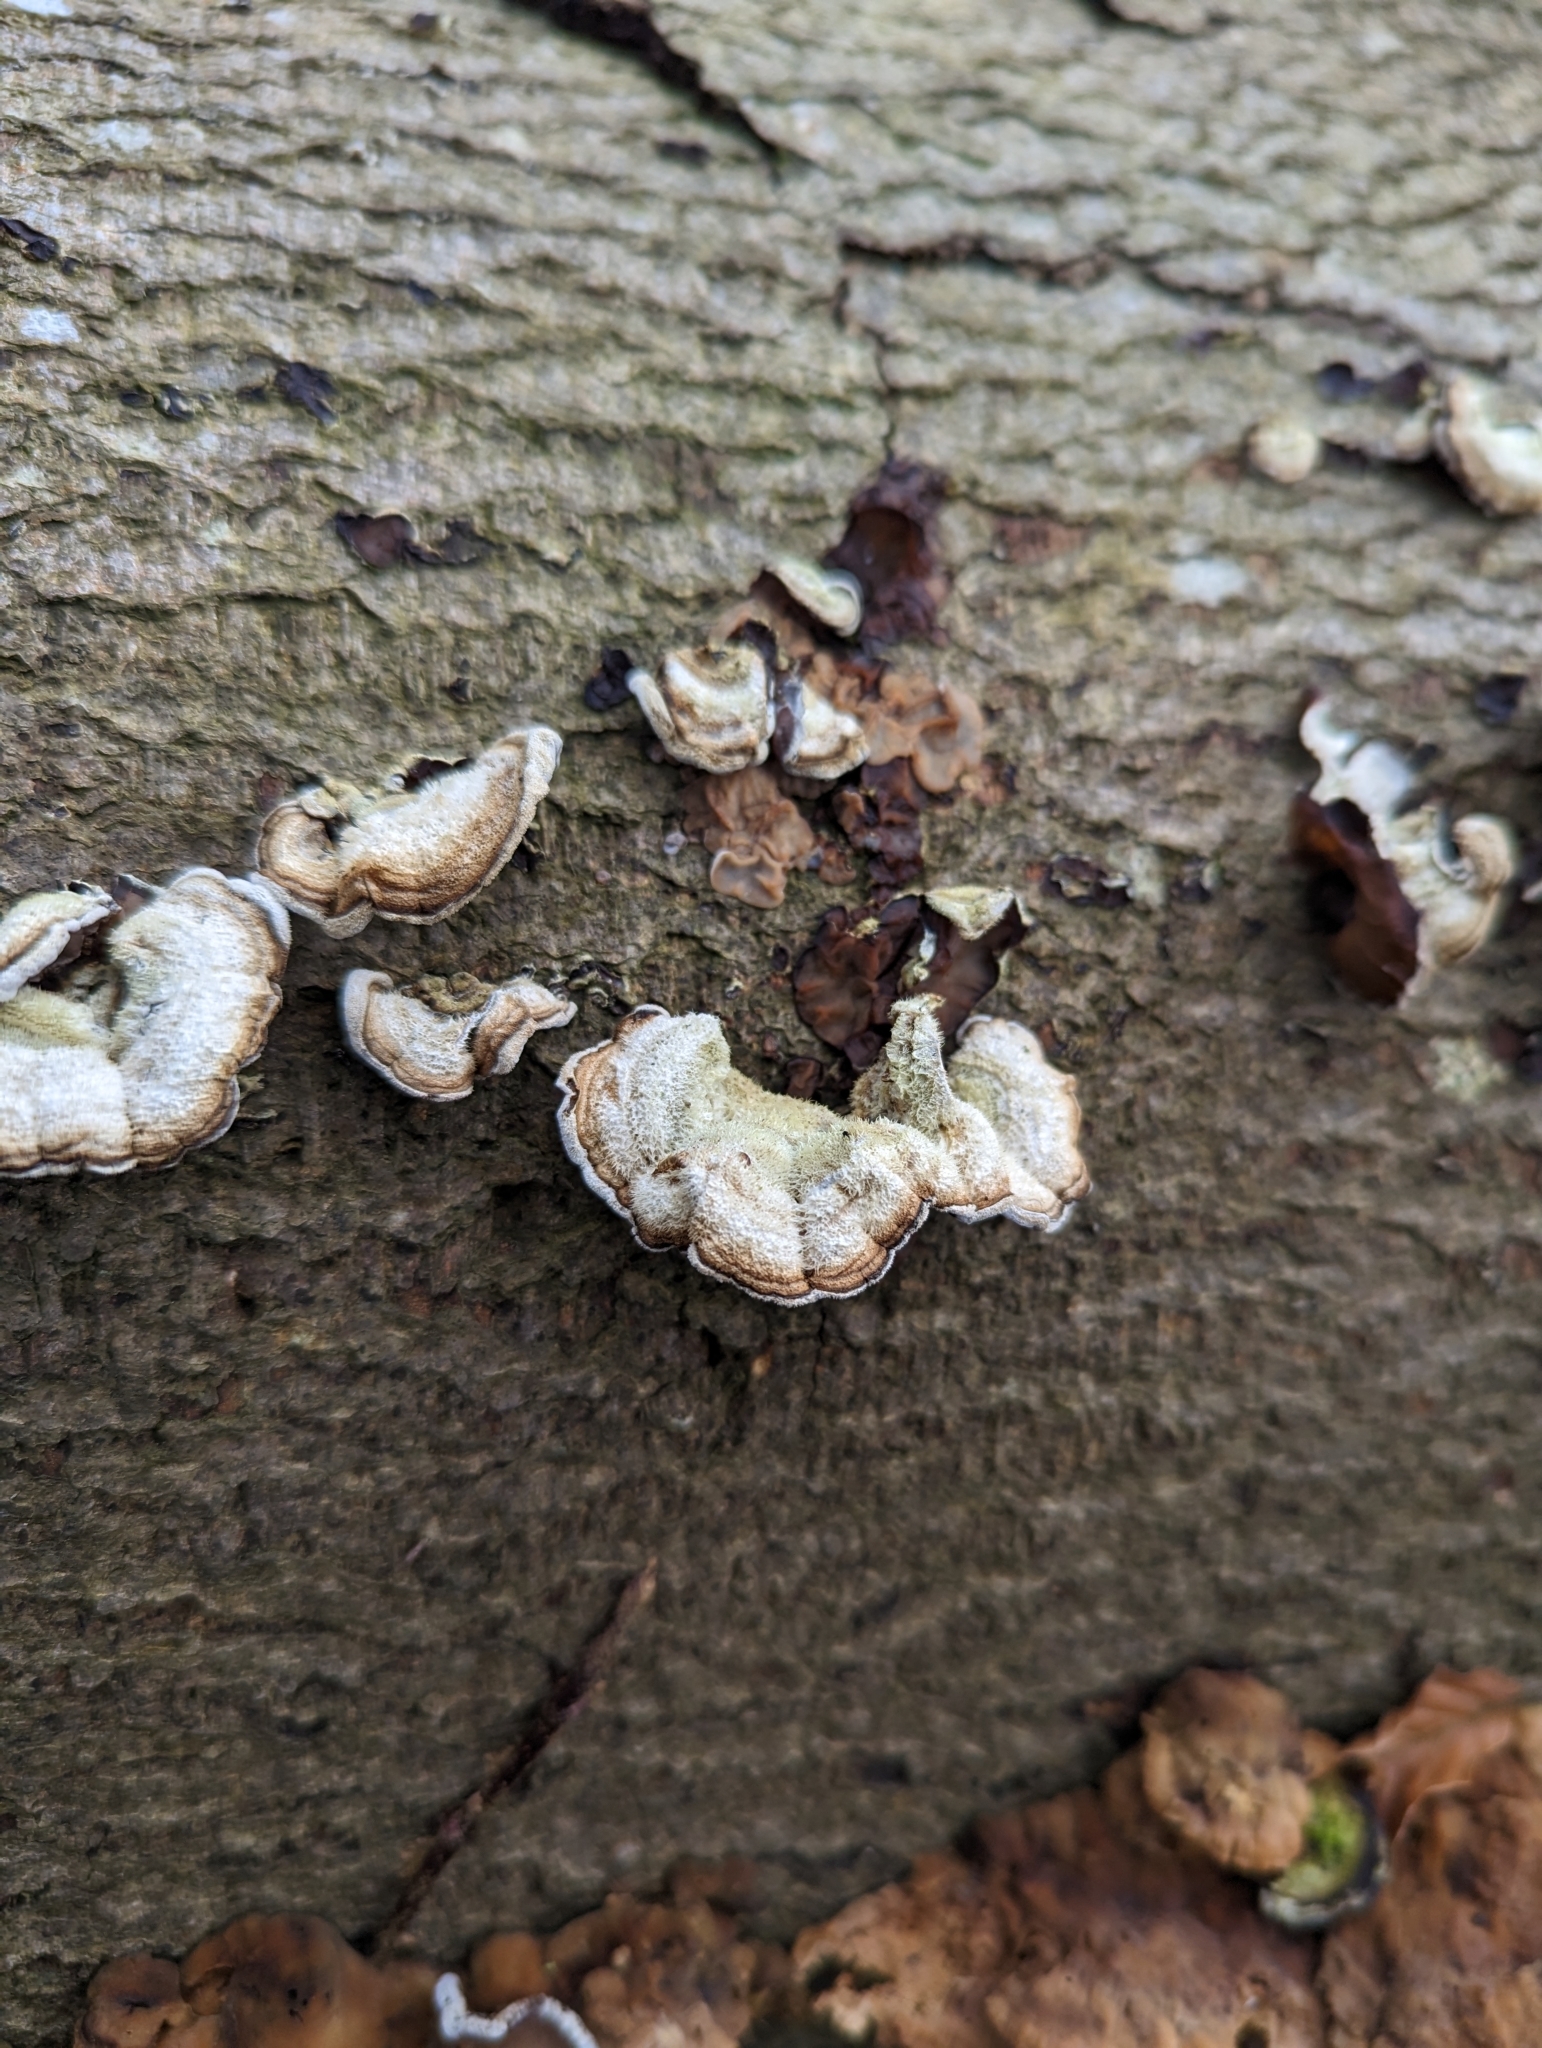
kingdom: Fungi
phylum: Basidiomycota
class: Agaricomycetes
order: Auriculariales
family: Auriculariaceae
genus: Auricularia
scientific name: Auricularia mesenterica
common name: Tripe fungus
